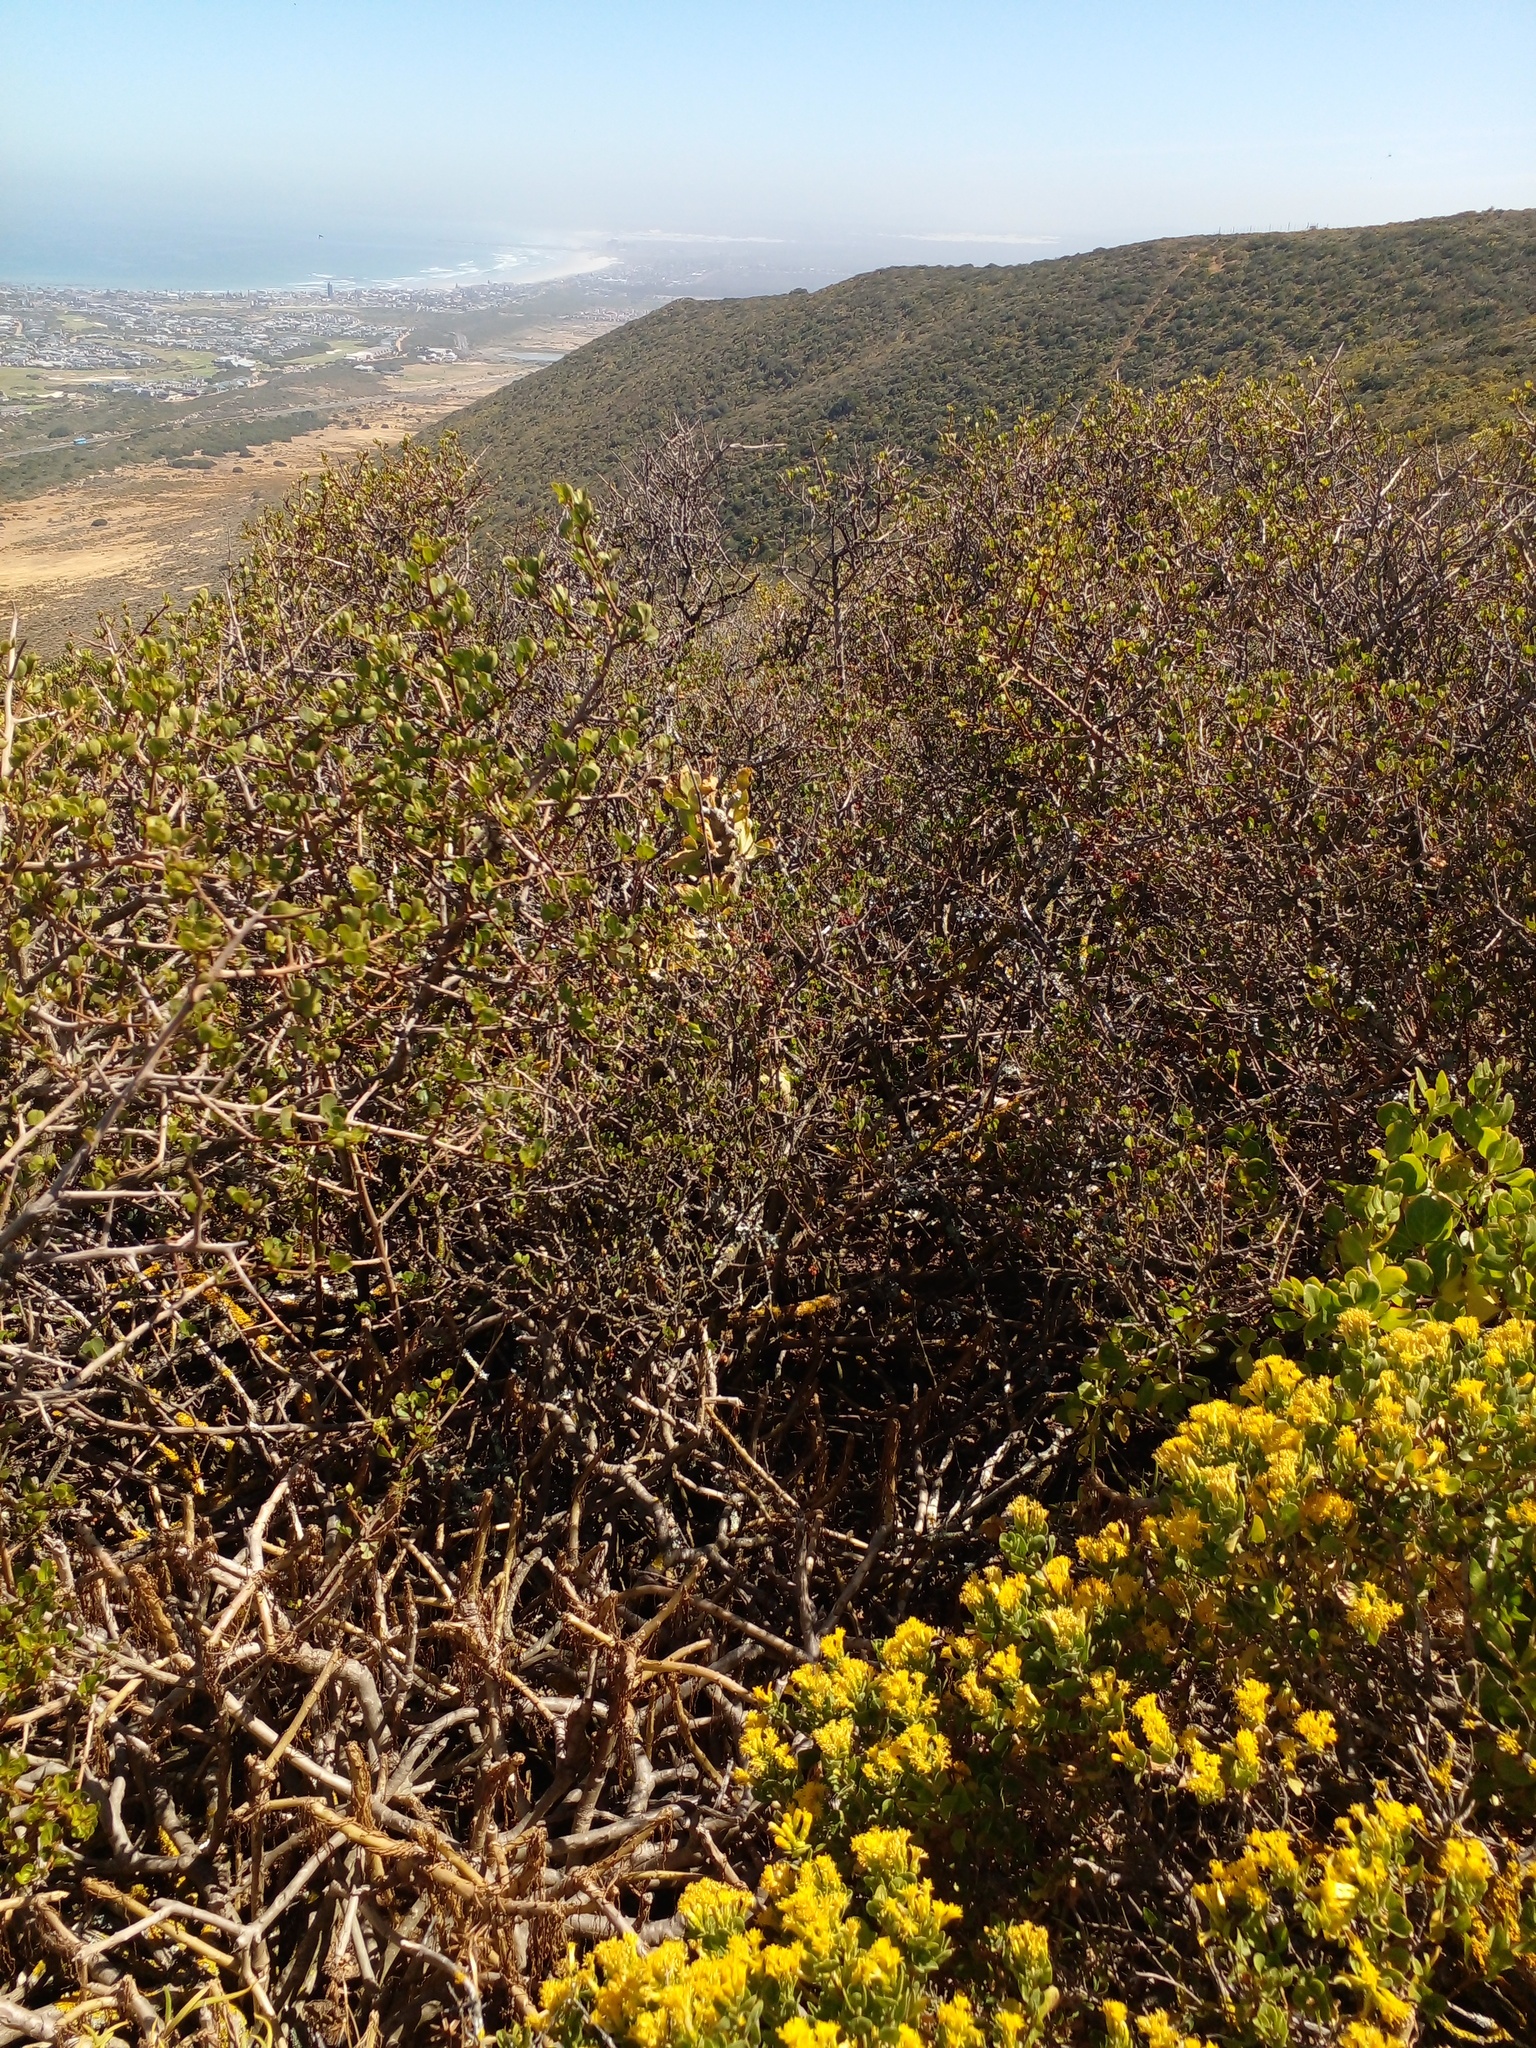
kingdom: Plantae
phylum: Tracheophyta
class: Magnoliopsida
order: Asterales
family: Asteraceae
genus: Pteronia
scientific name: Pteronia divaricata
